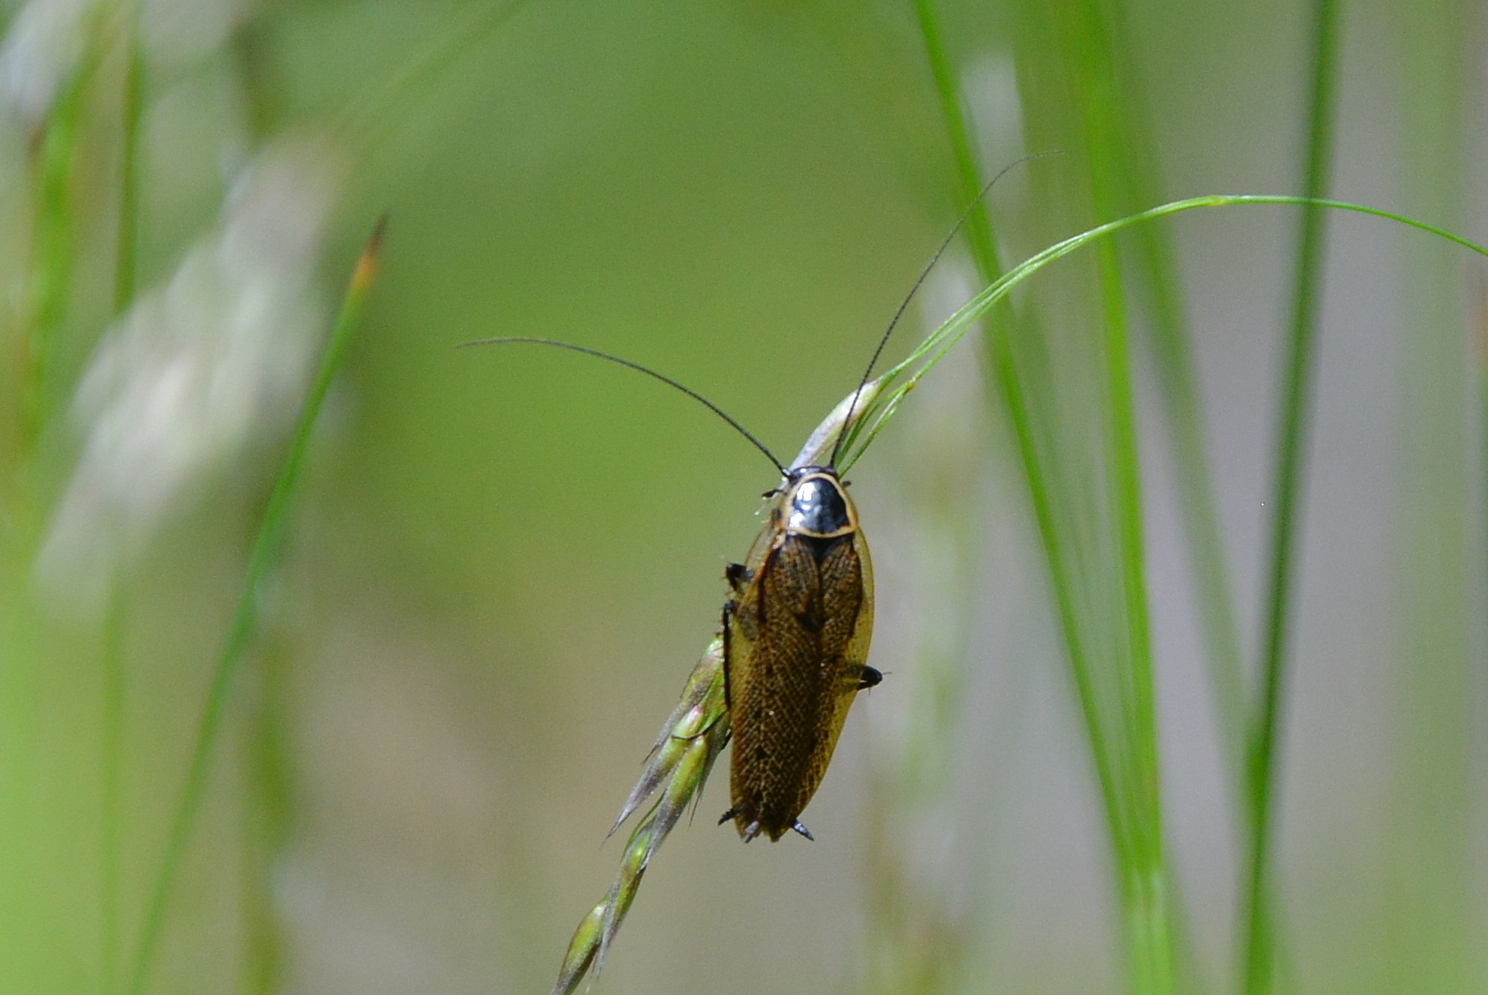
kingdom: Animalia
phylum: Arthropoda
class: Insecta
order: Blattodea
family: Ectobiidae
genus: Ectobius
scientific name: Ectobius sylvestris
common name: Forest cockroach
